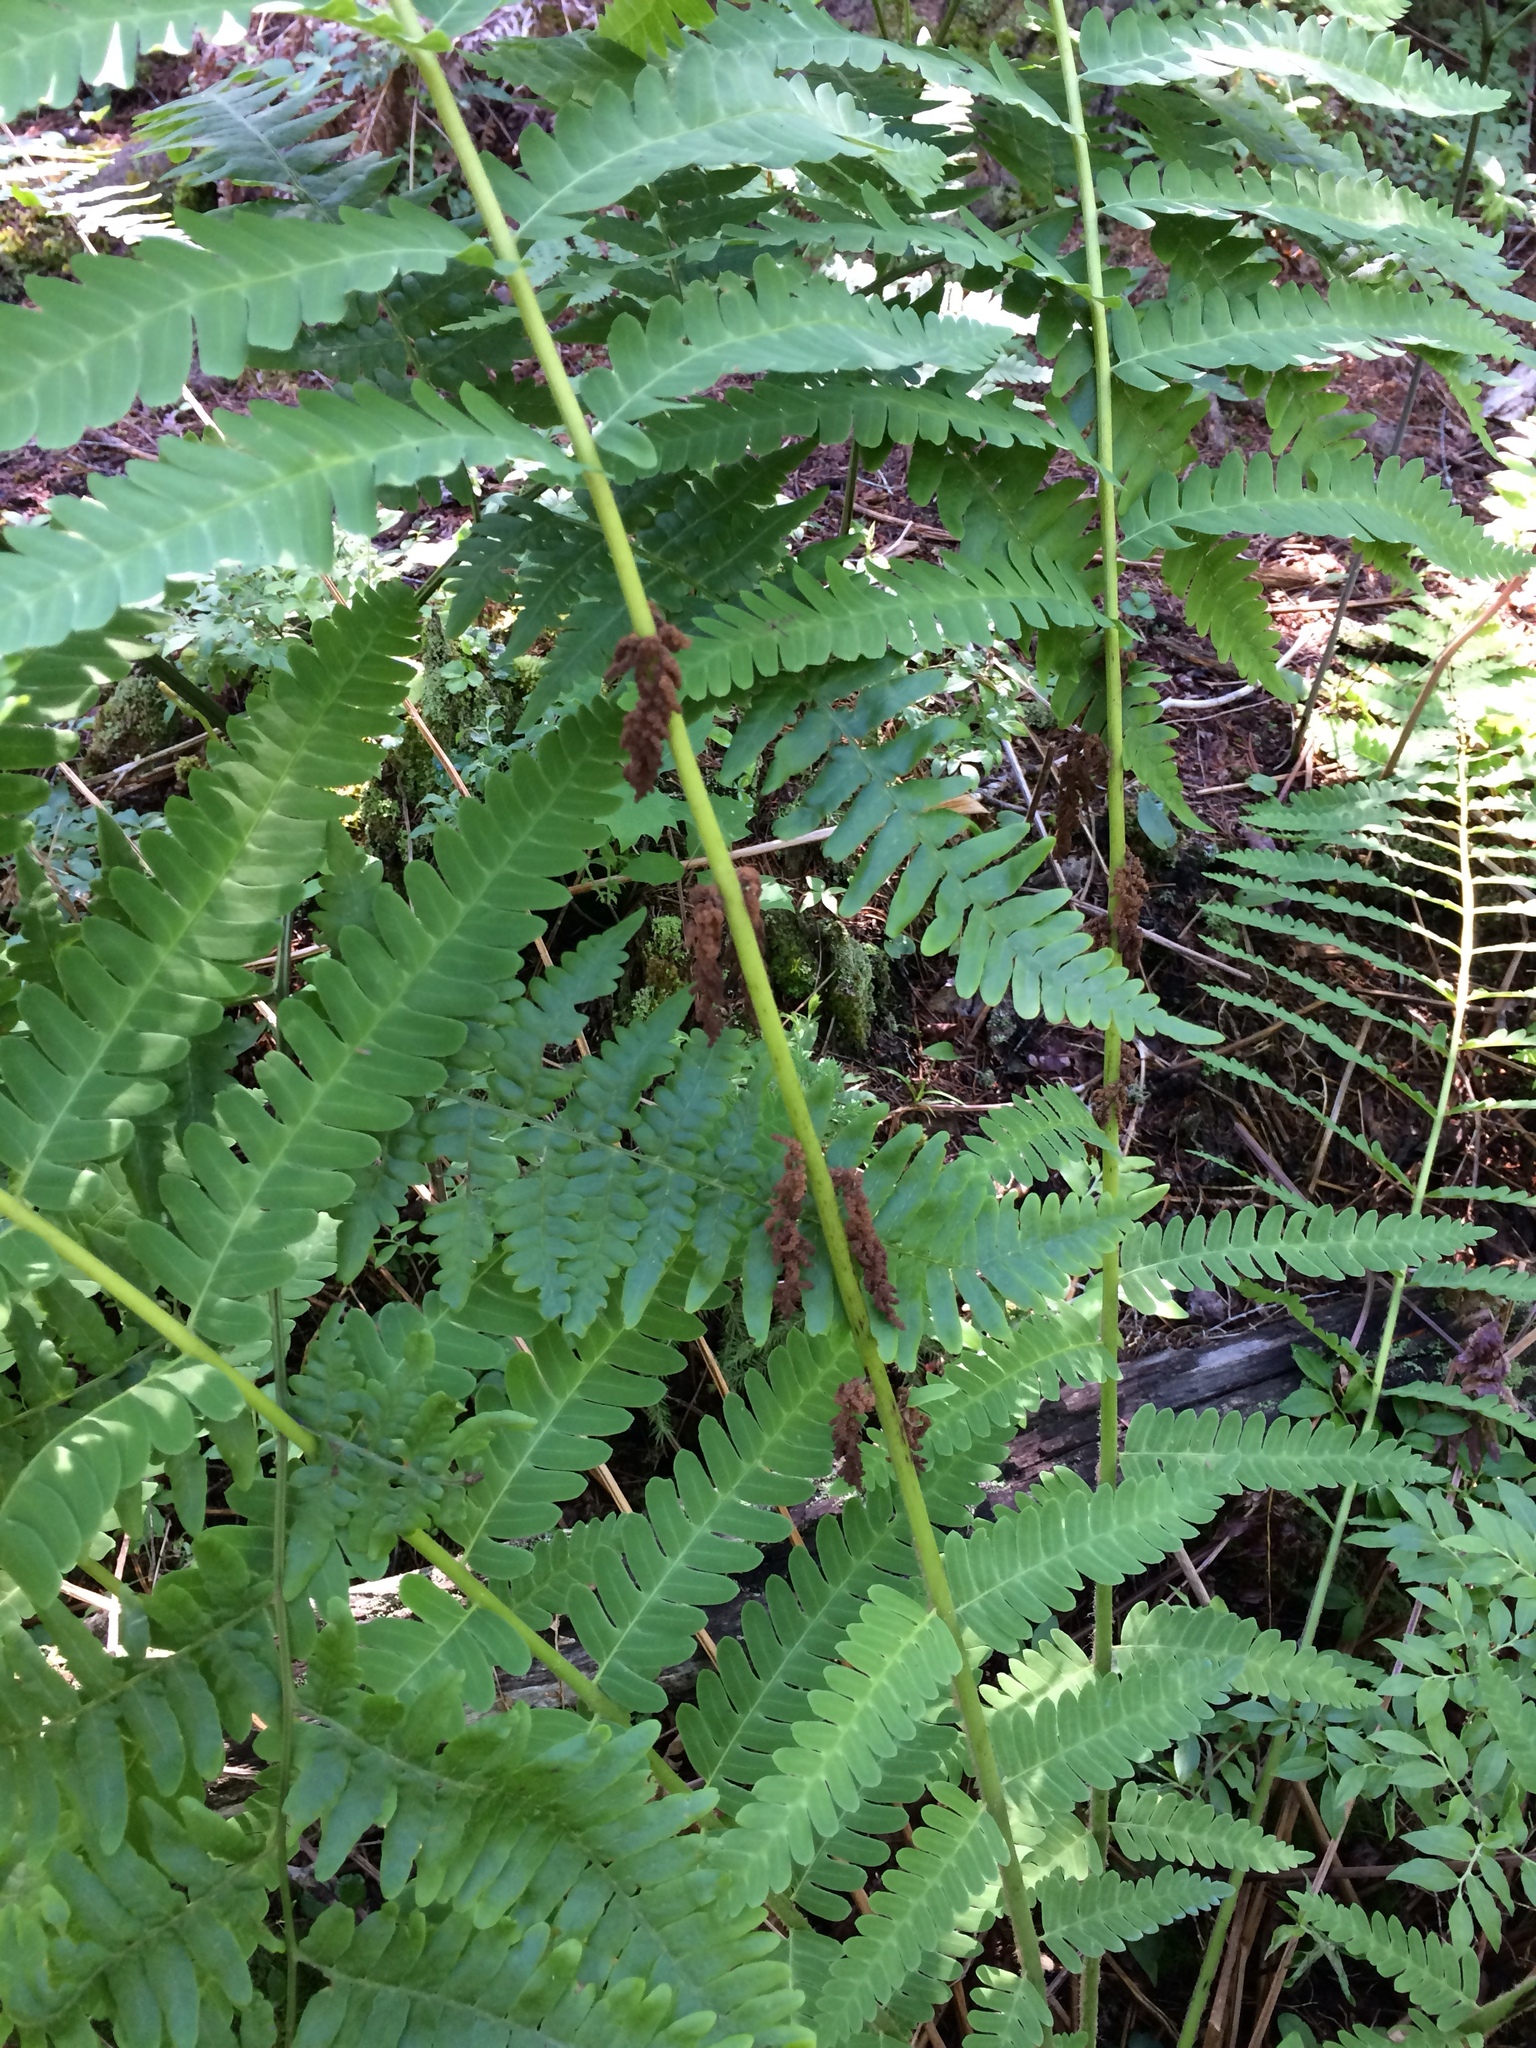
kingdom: Plantae
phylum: Tracheophyta
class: Polypodiopsida
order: Osmundales
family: Osmundaceae
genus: Claytosmunda
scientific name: Claytosmunda claytoniana
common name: Clayton's fern
